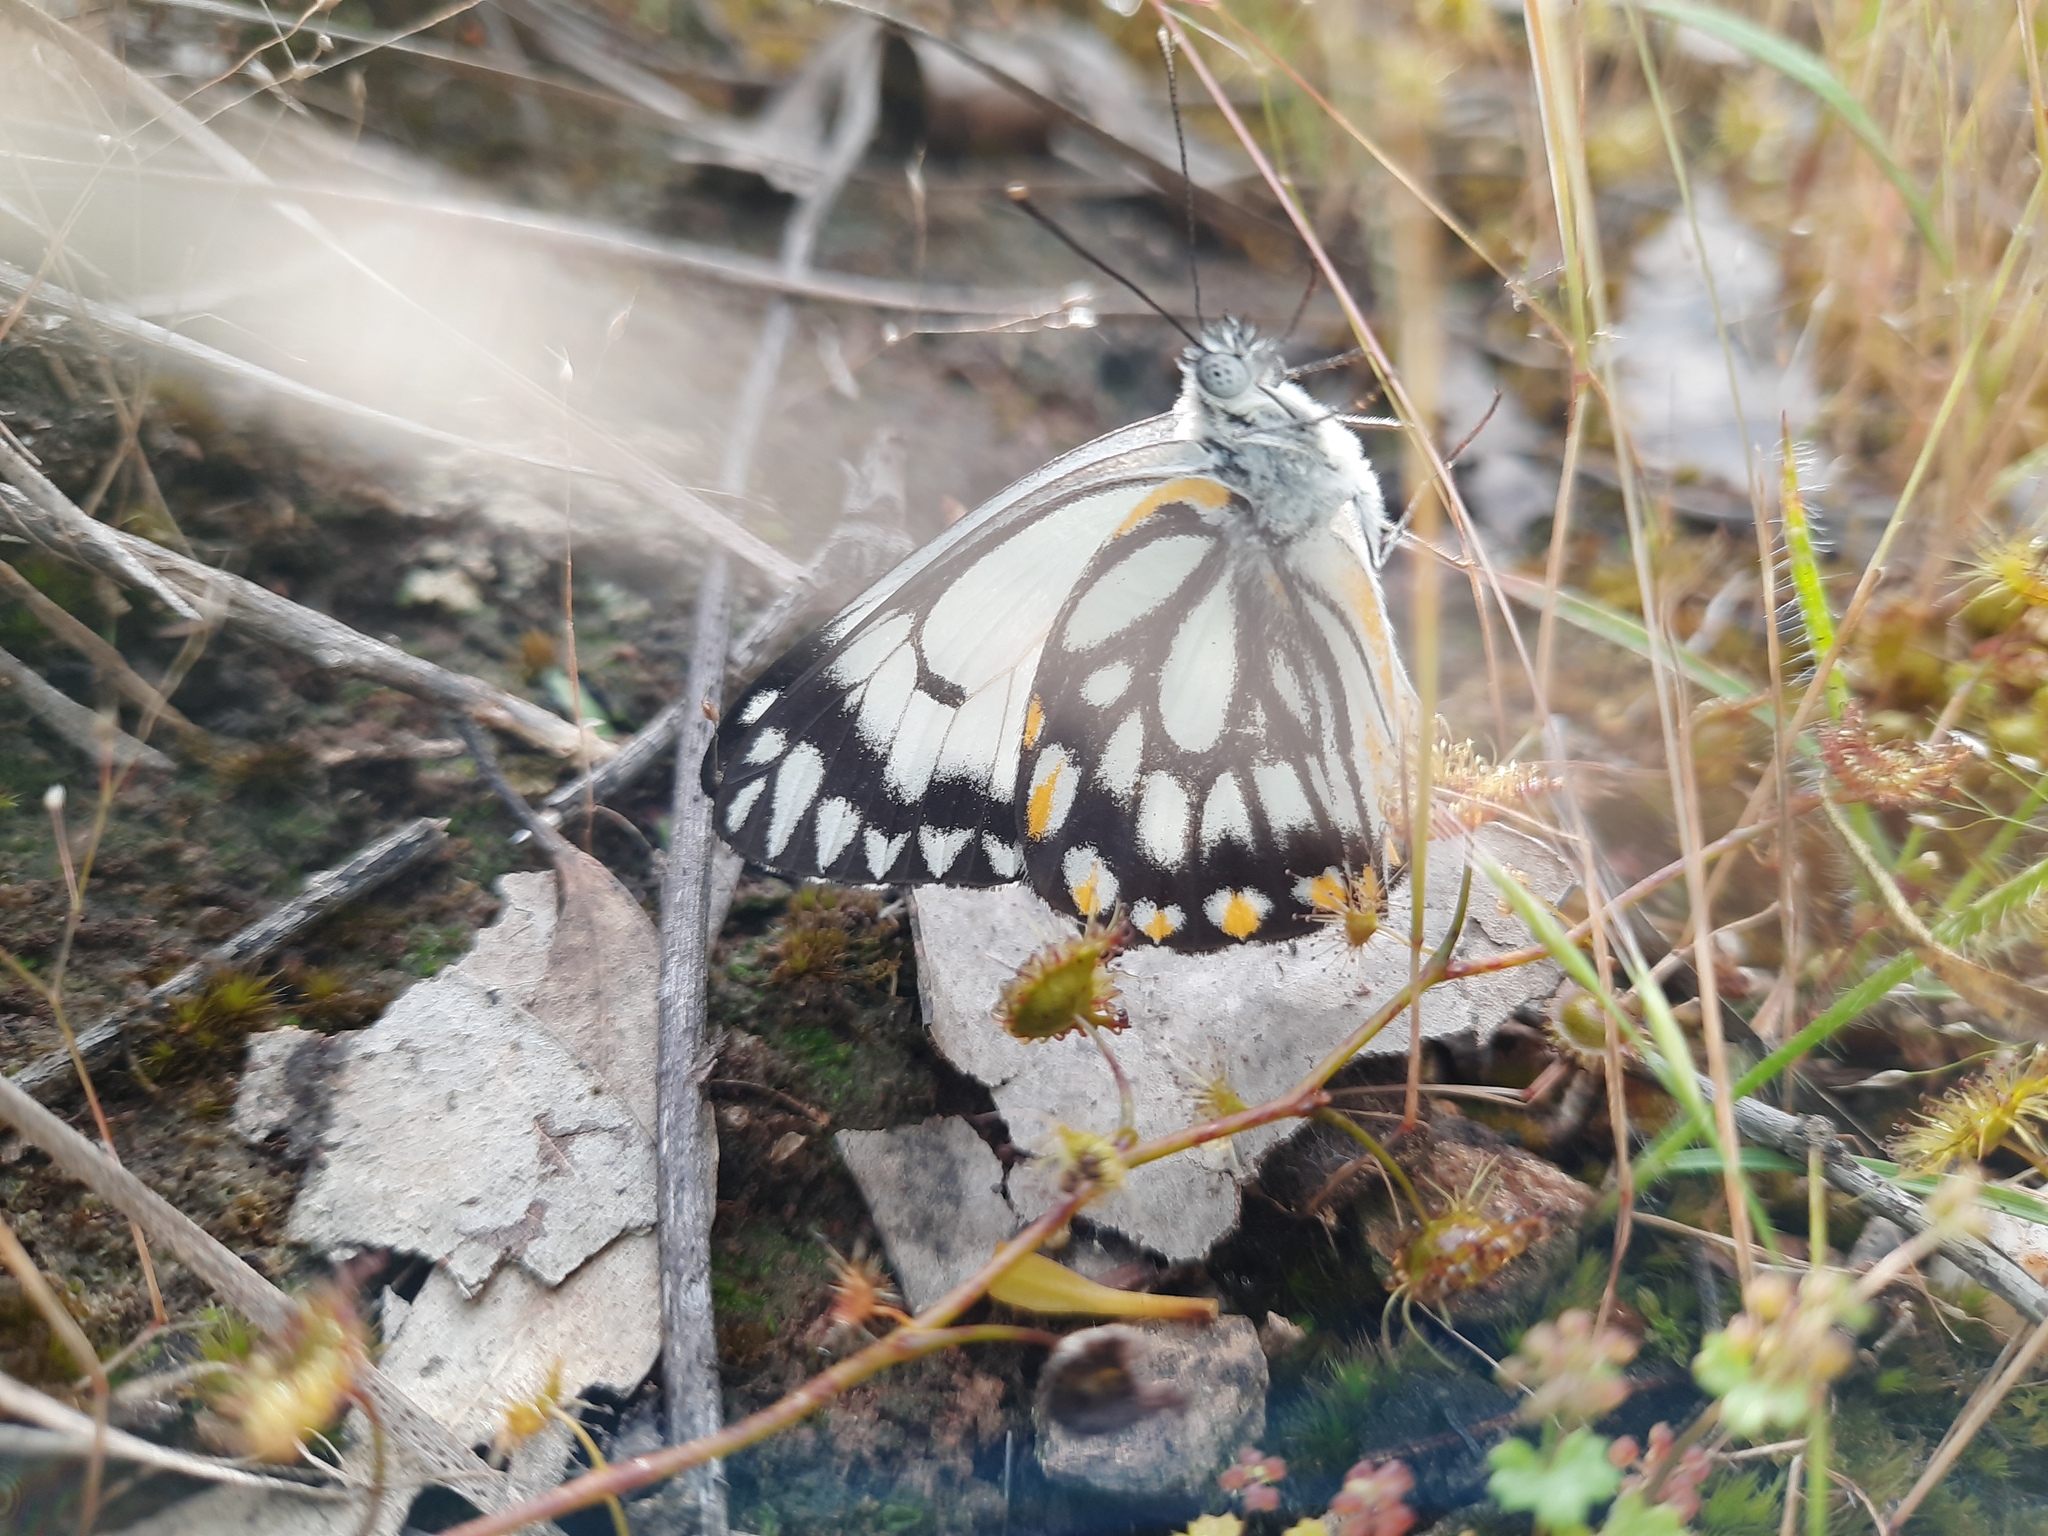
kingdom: Animalia
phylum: Arthropoda
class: Insecta
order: Lepidoptera
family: Pieridae
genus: Belenois
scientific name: Belenois java
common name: Caper white
